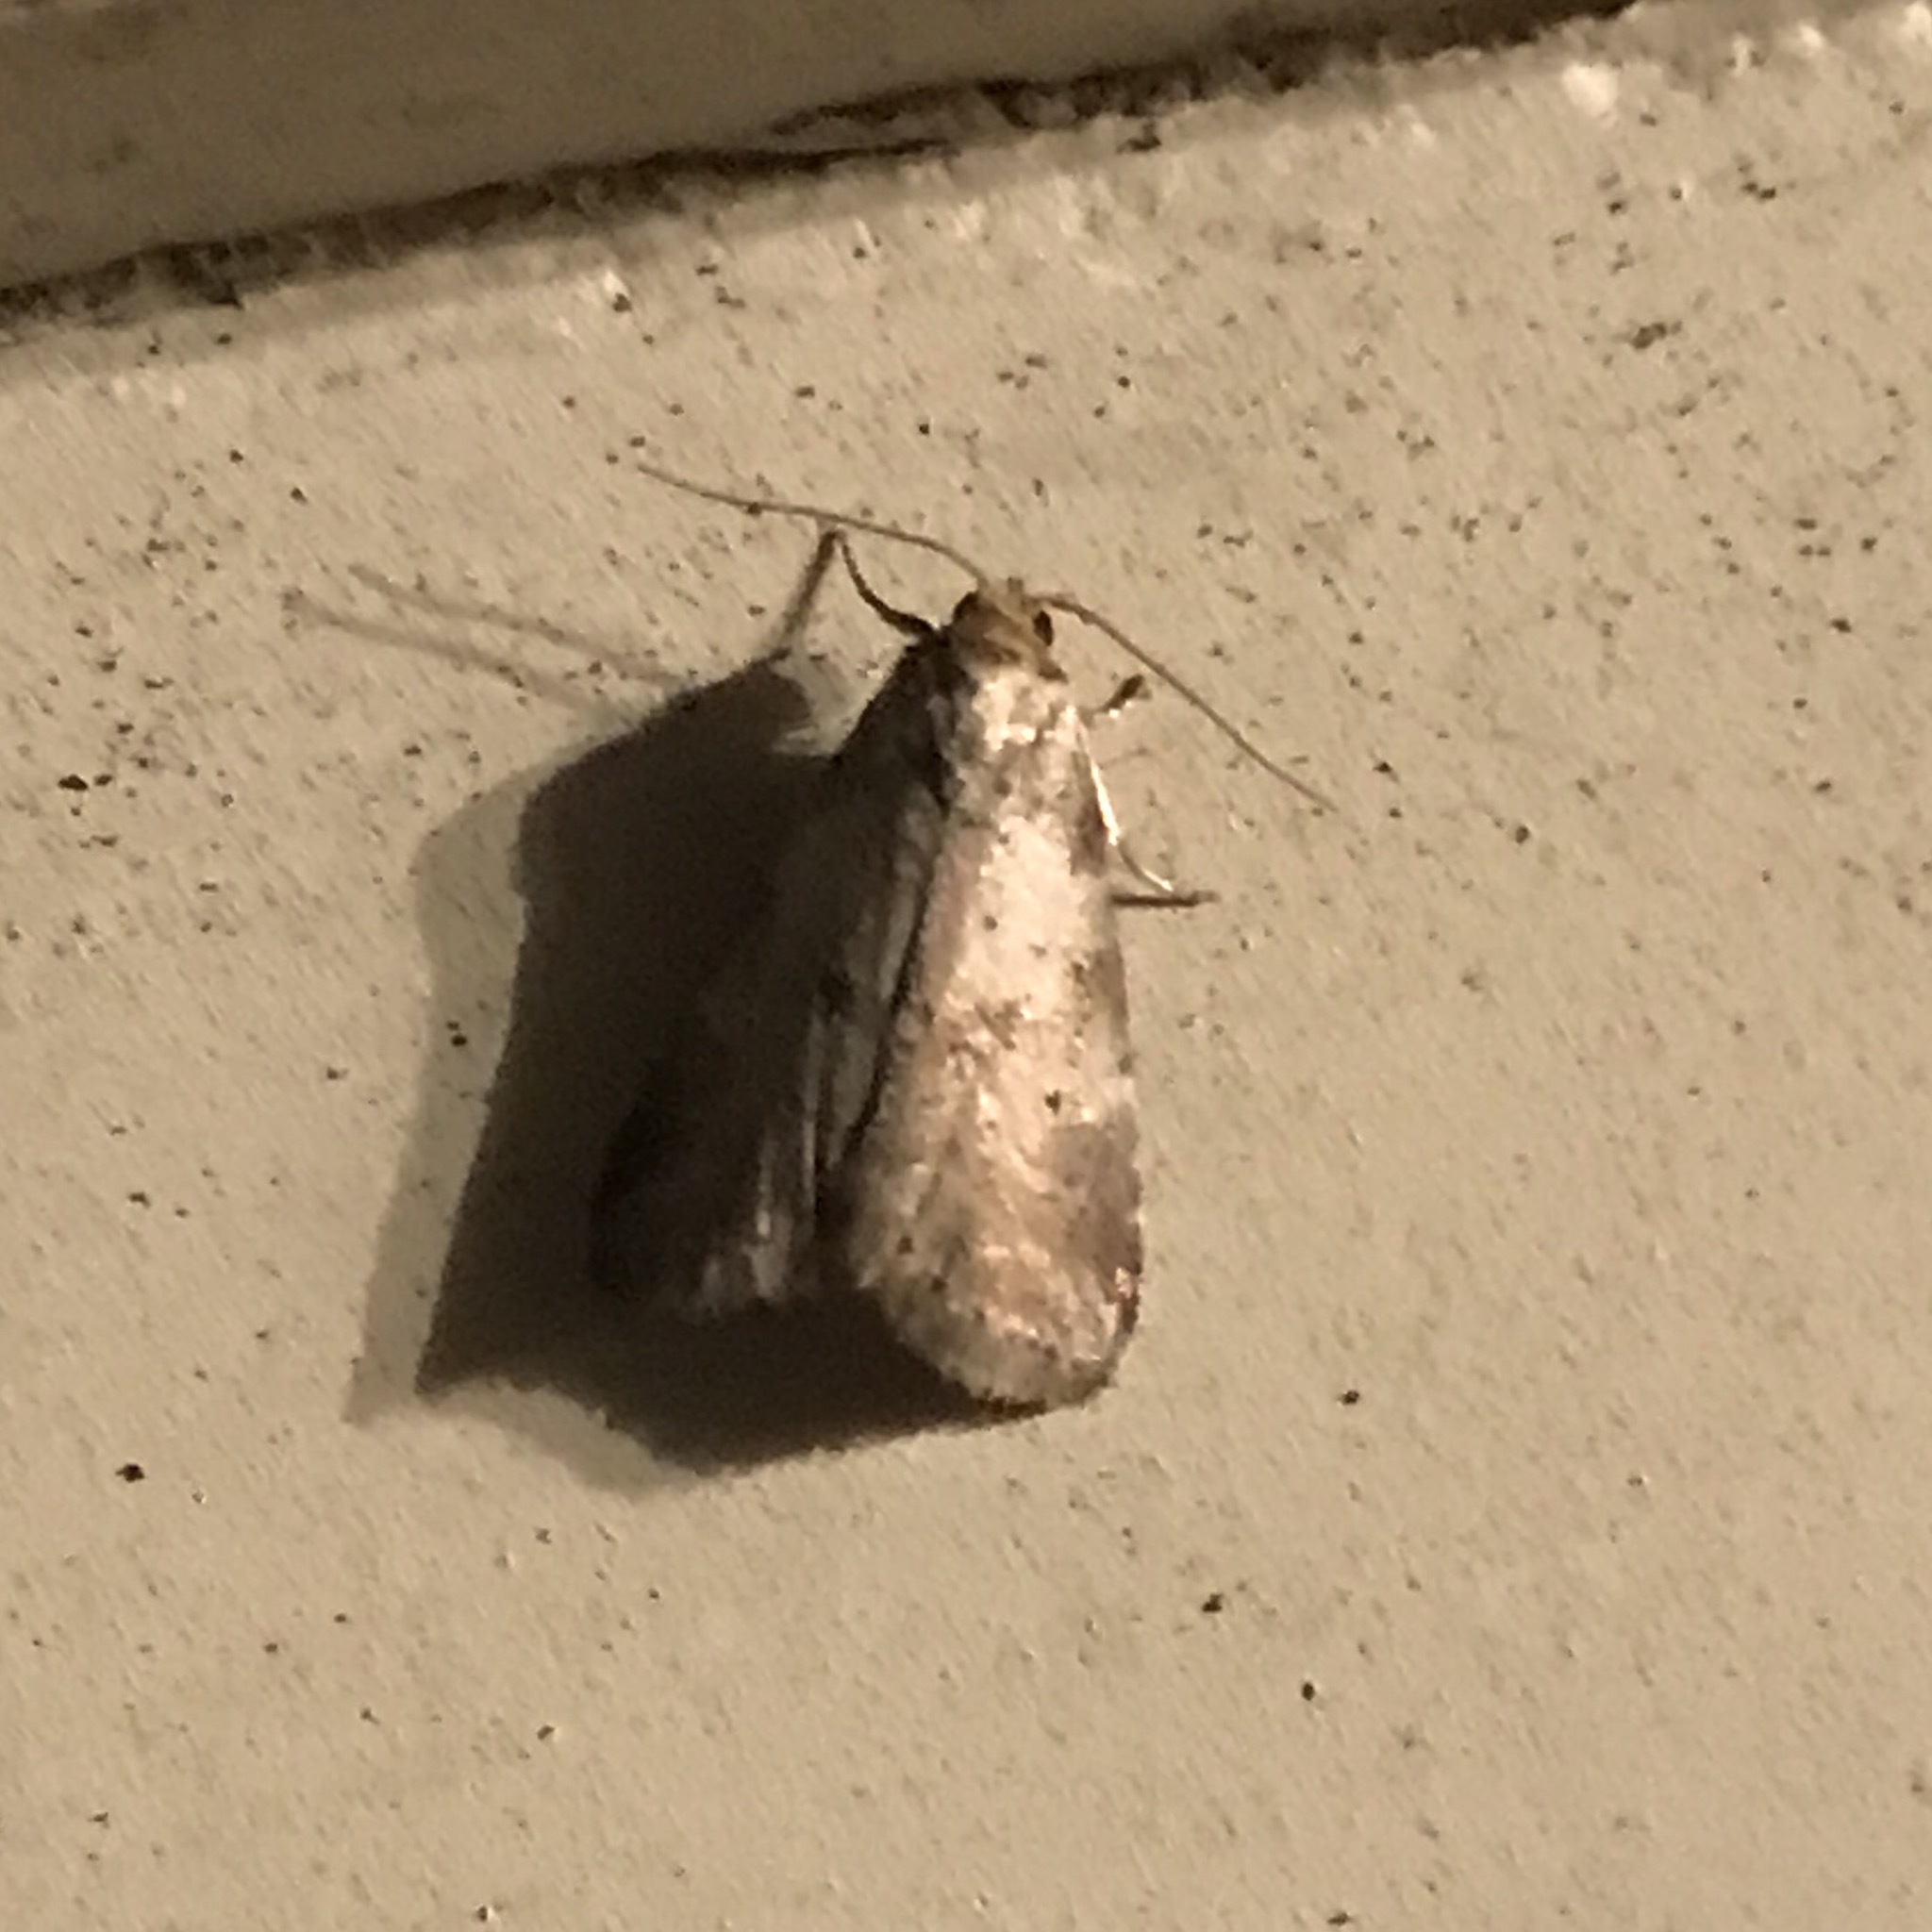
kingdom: Animalia
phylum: Arthropoda
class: Insecta
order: Lepidoptera
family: Erebidae
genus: Hyperstrotia
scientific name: Hyperstrotia pervertens
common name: Dotted graylet
